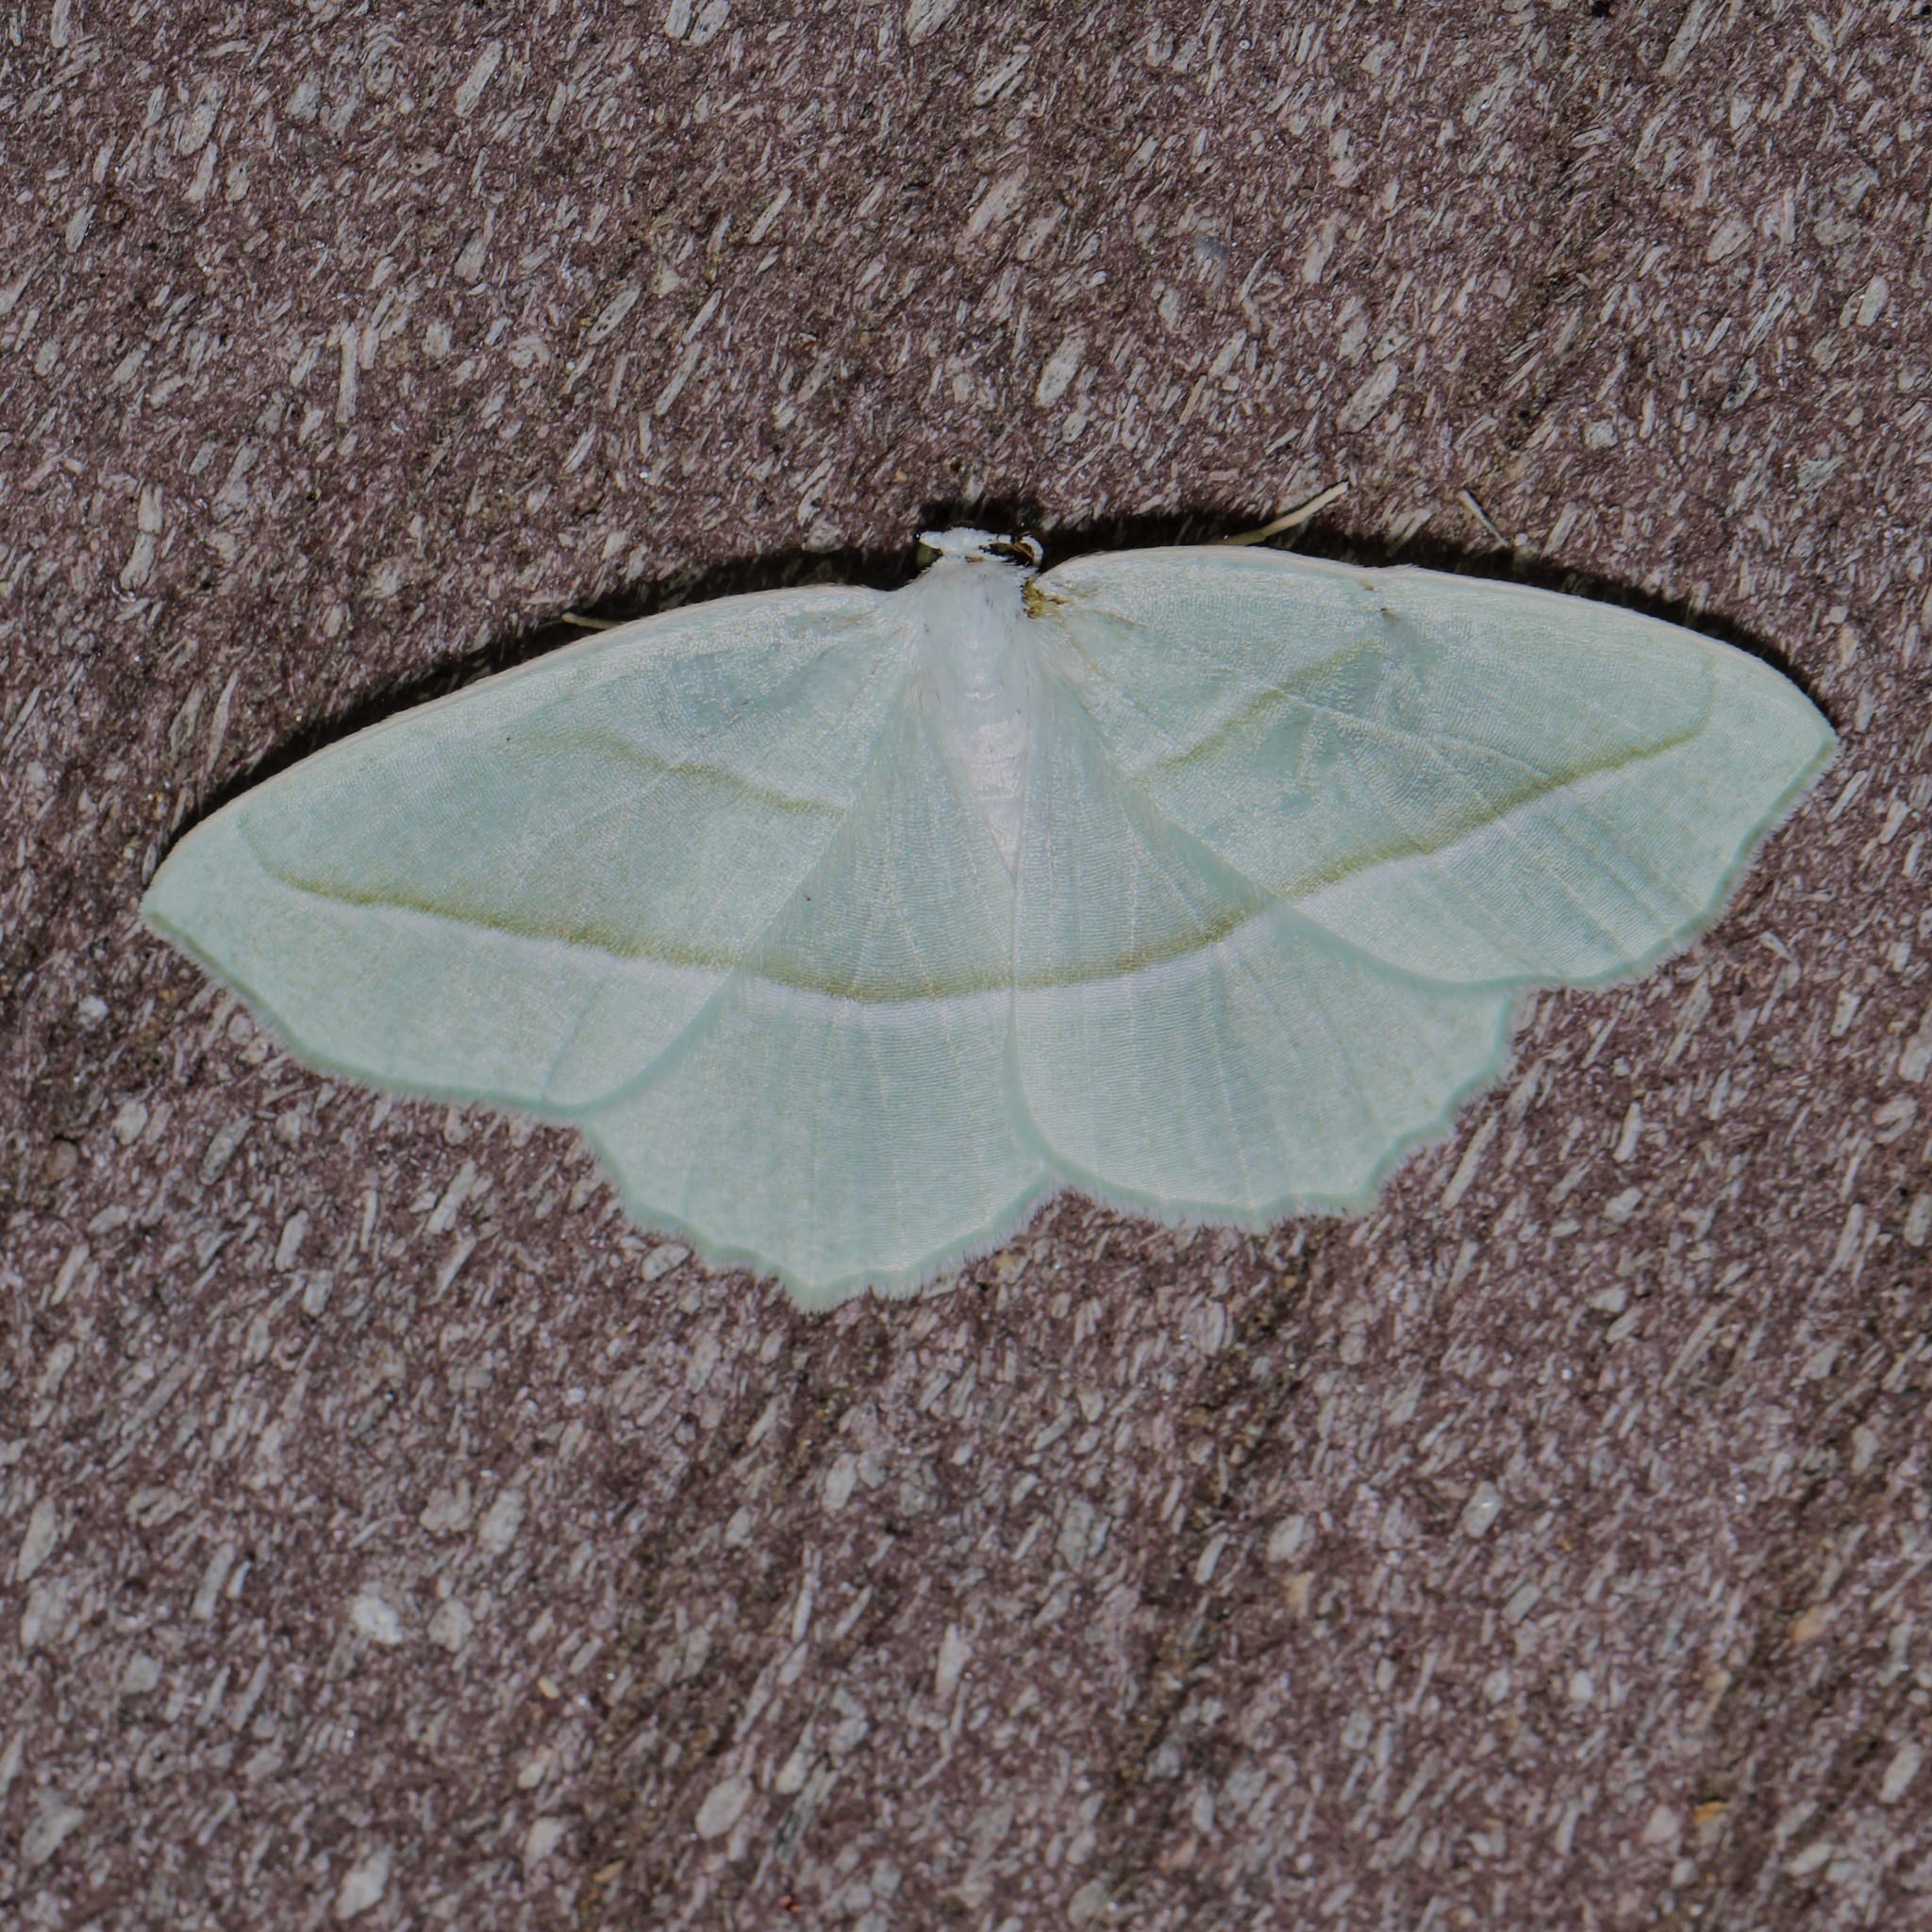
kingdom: Animalia
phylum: Arthropoda
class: Insecta
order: Lepidoptera
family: Geometridae
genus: Campaea
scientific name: Campaea perlata
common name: Fringed looper
